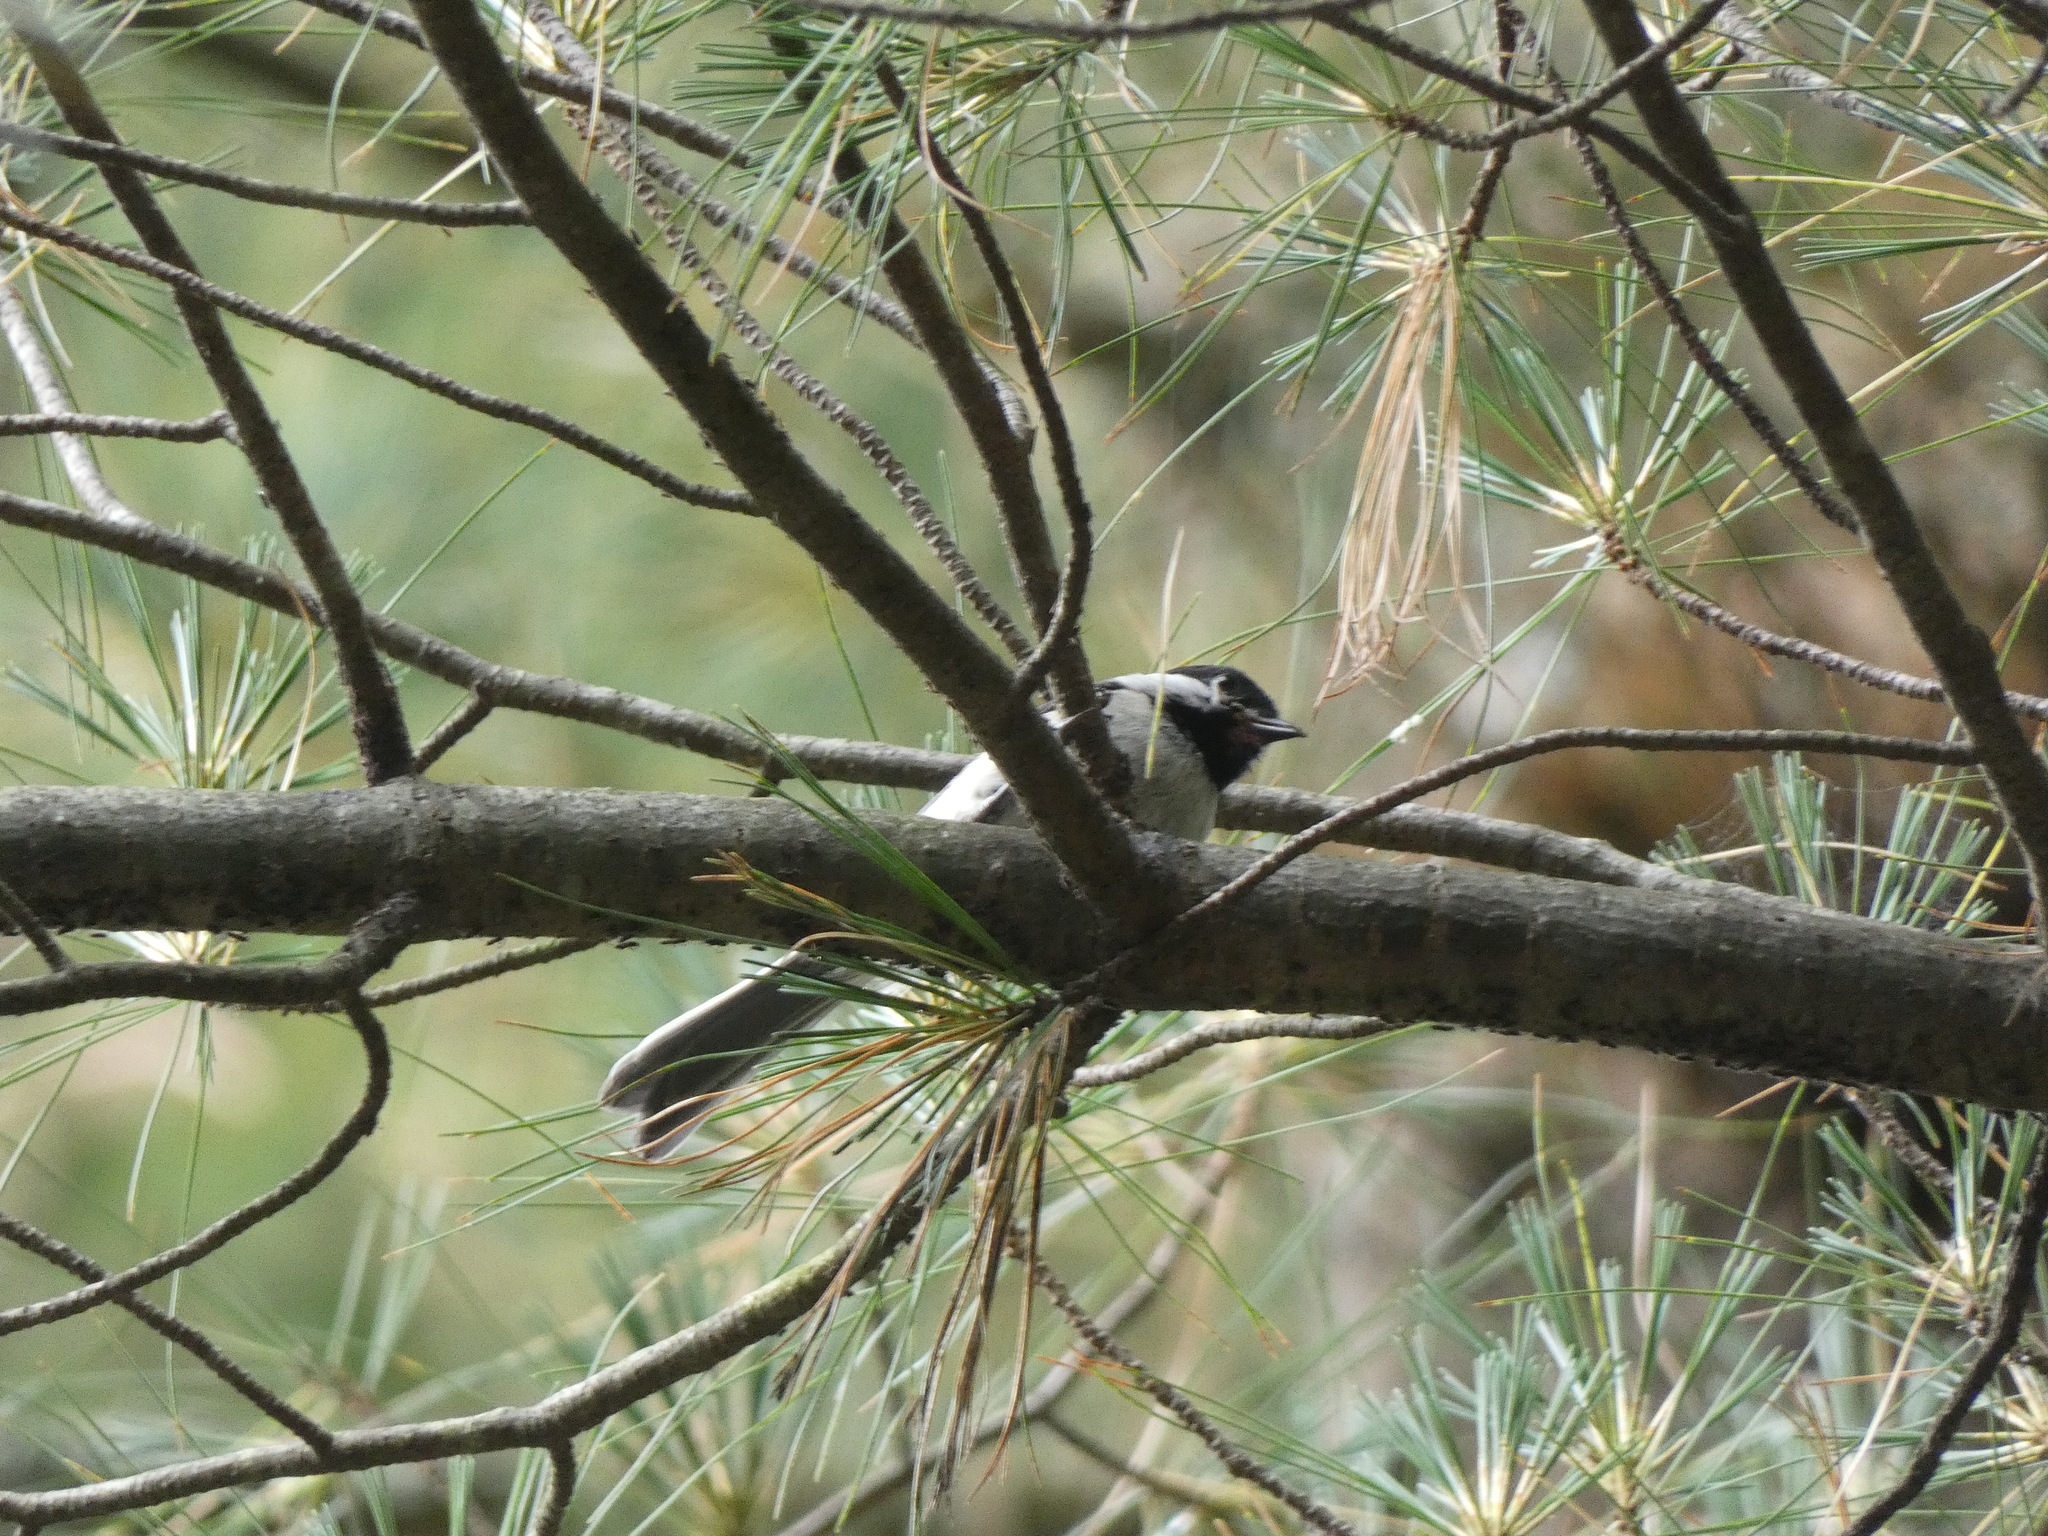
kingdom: Animalia
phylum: Chordata
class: Aves
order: Passeriformes
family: Paridae
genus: Poecile
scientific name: Poecile atricapillus
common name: Black-capped chickadee
